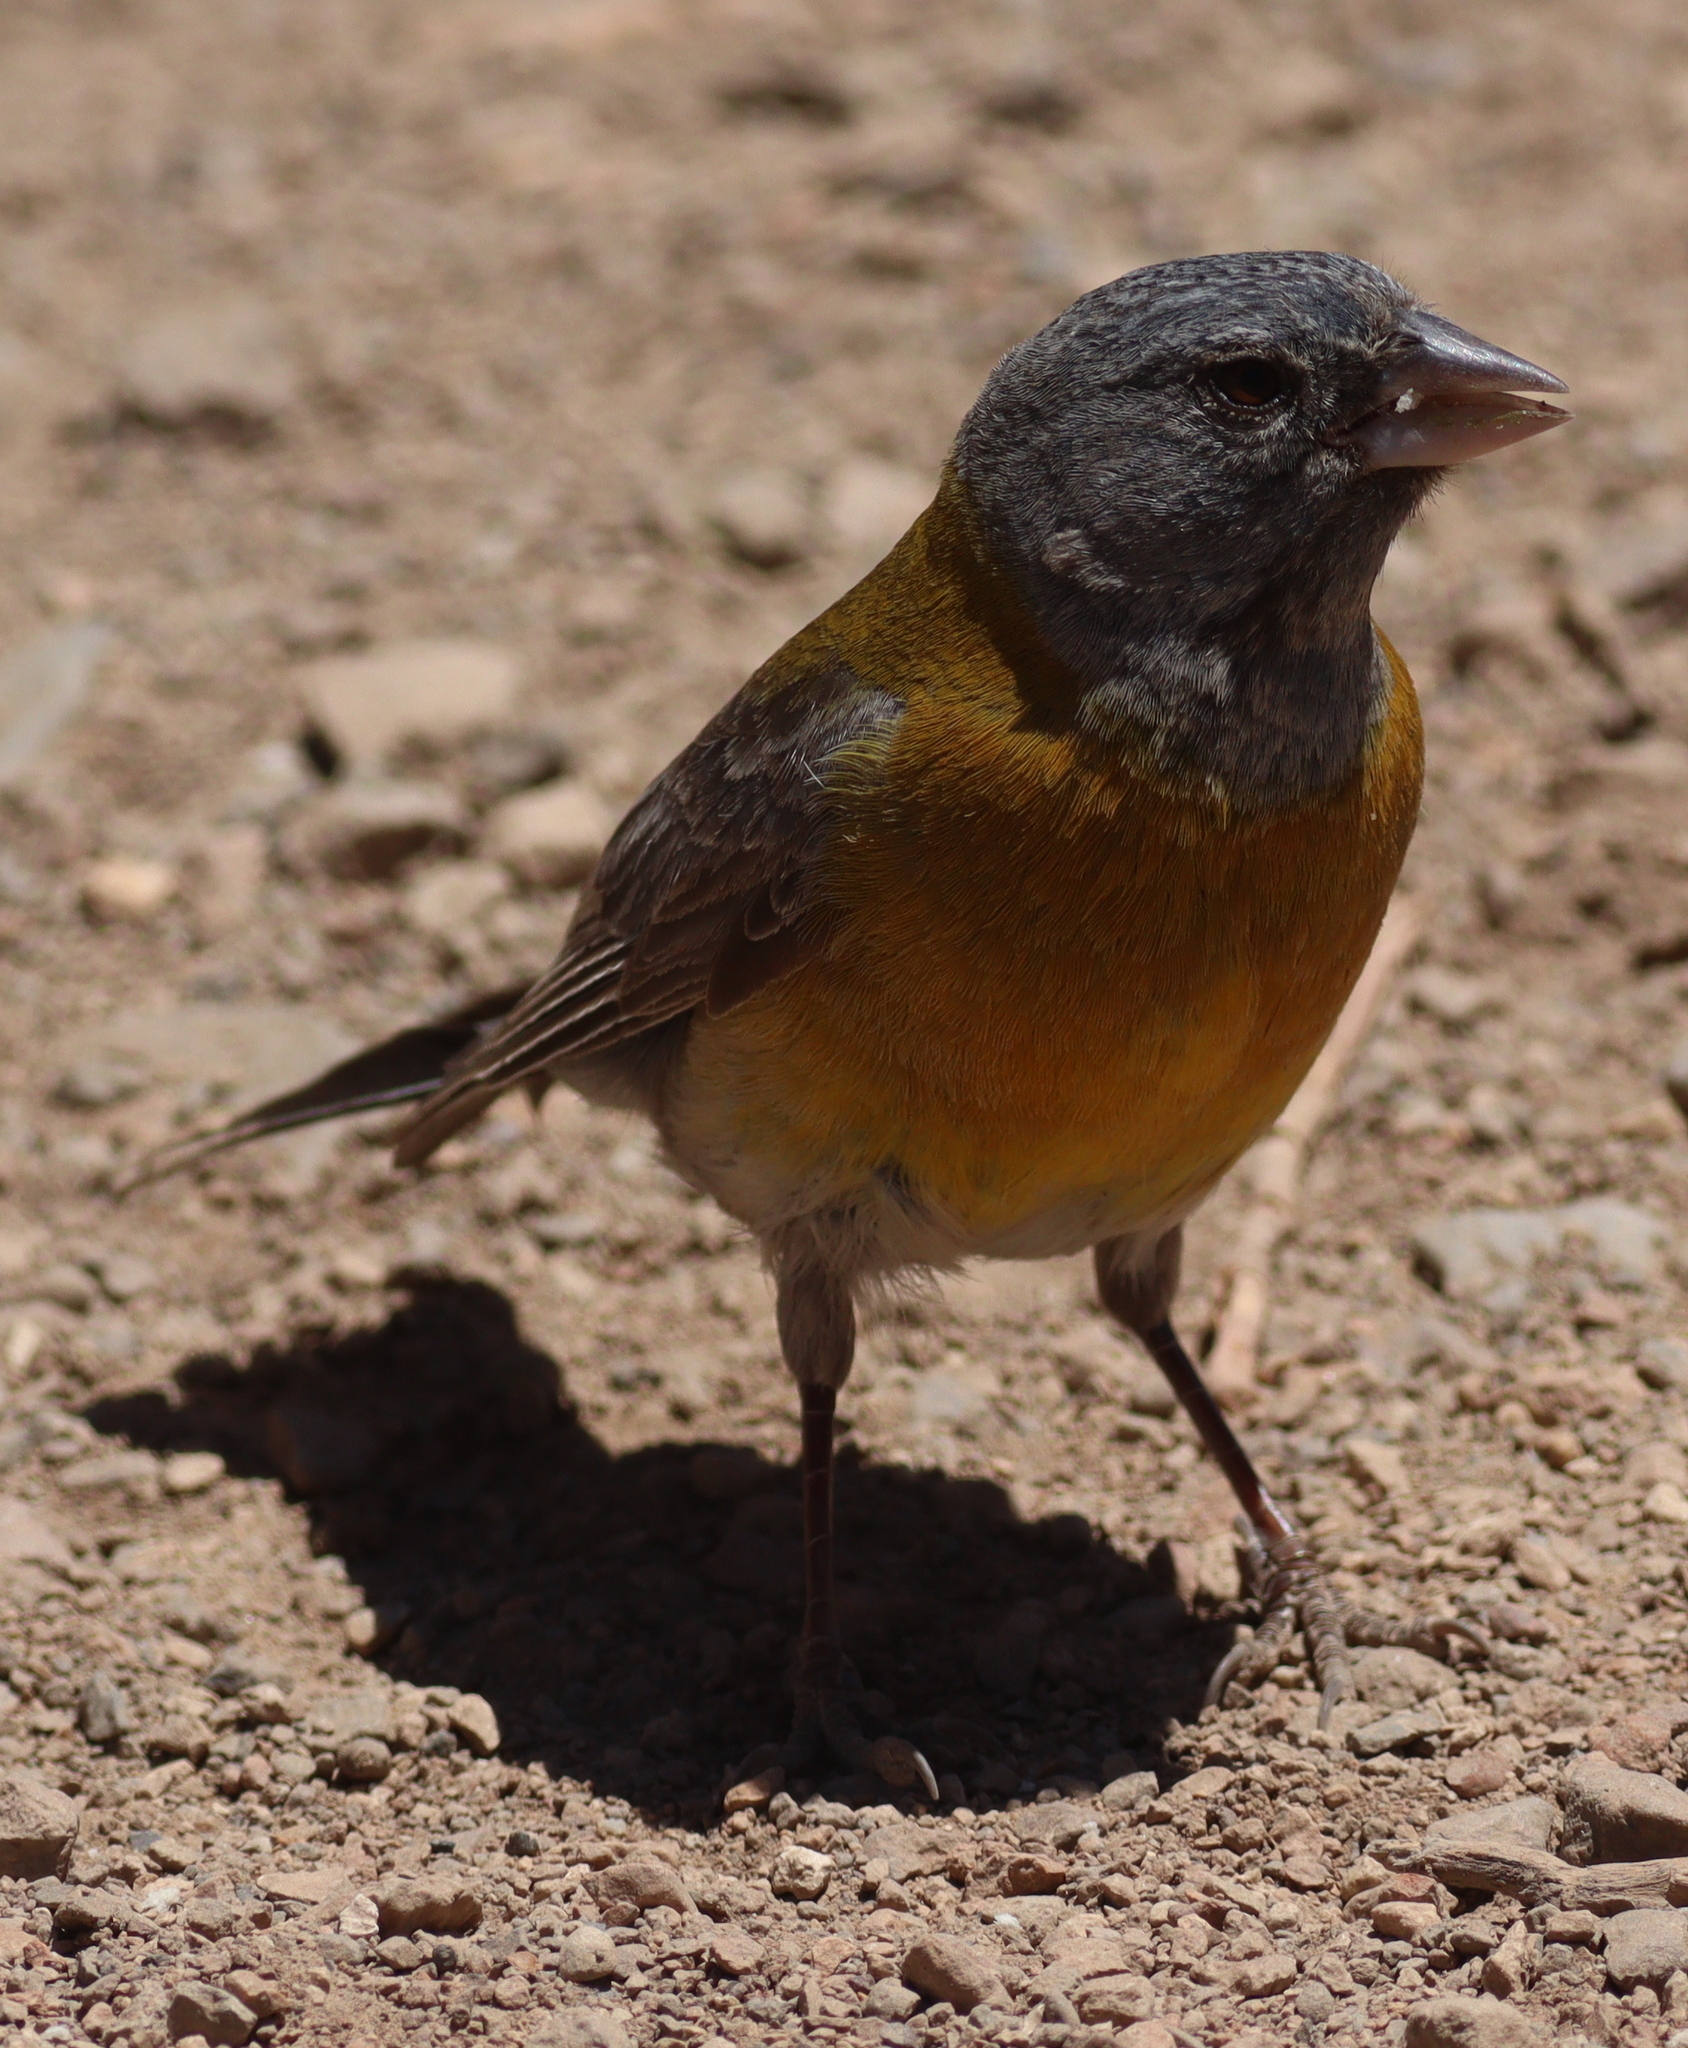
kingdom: Animalia
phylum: Chordata
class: Aves
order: Passeriformes
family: Thraupidae
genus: Phrygilus
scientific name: Phrygilus gayi
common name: Grey-hooded sierra finch
